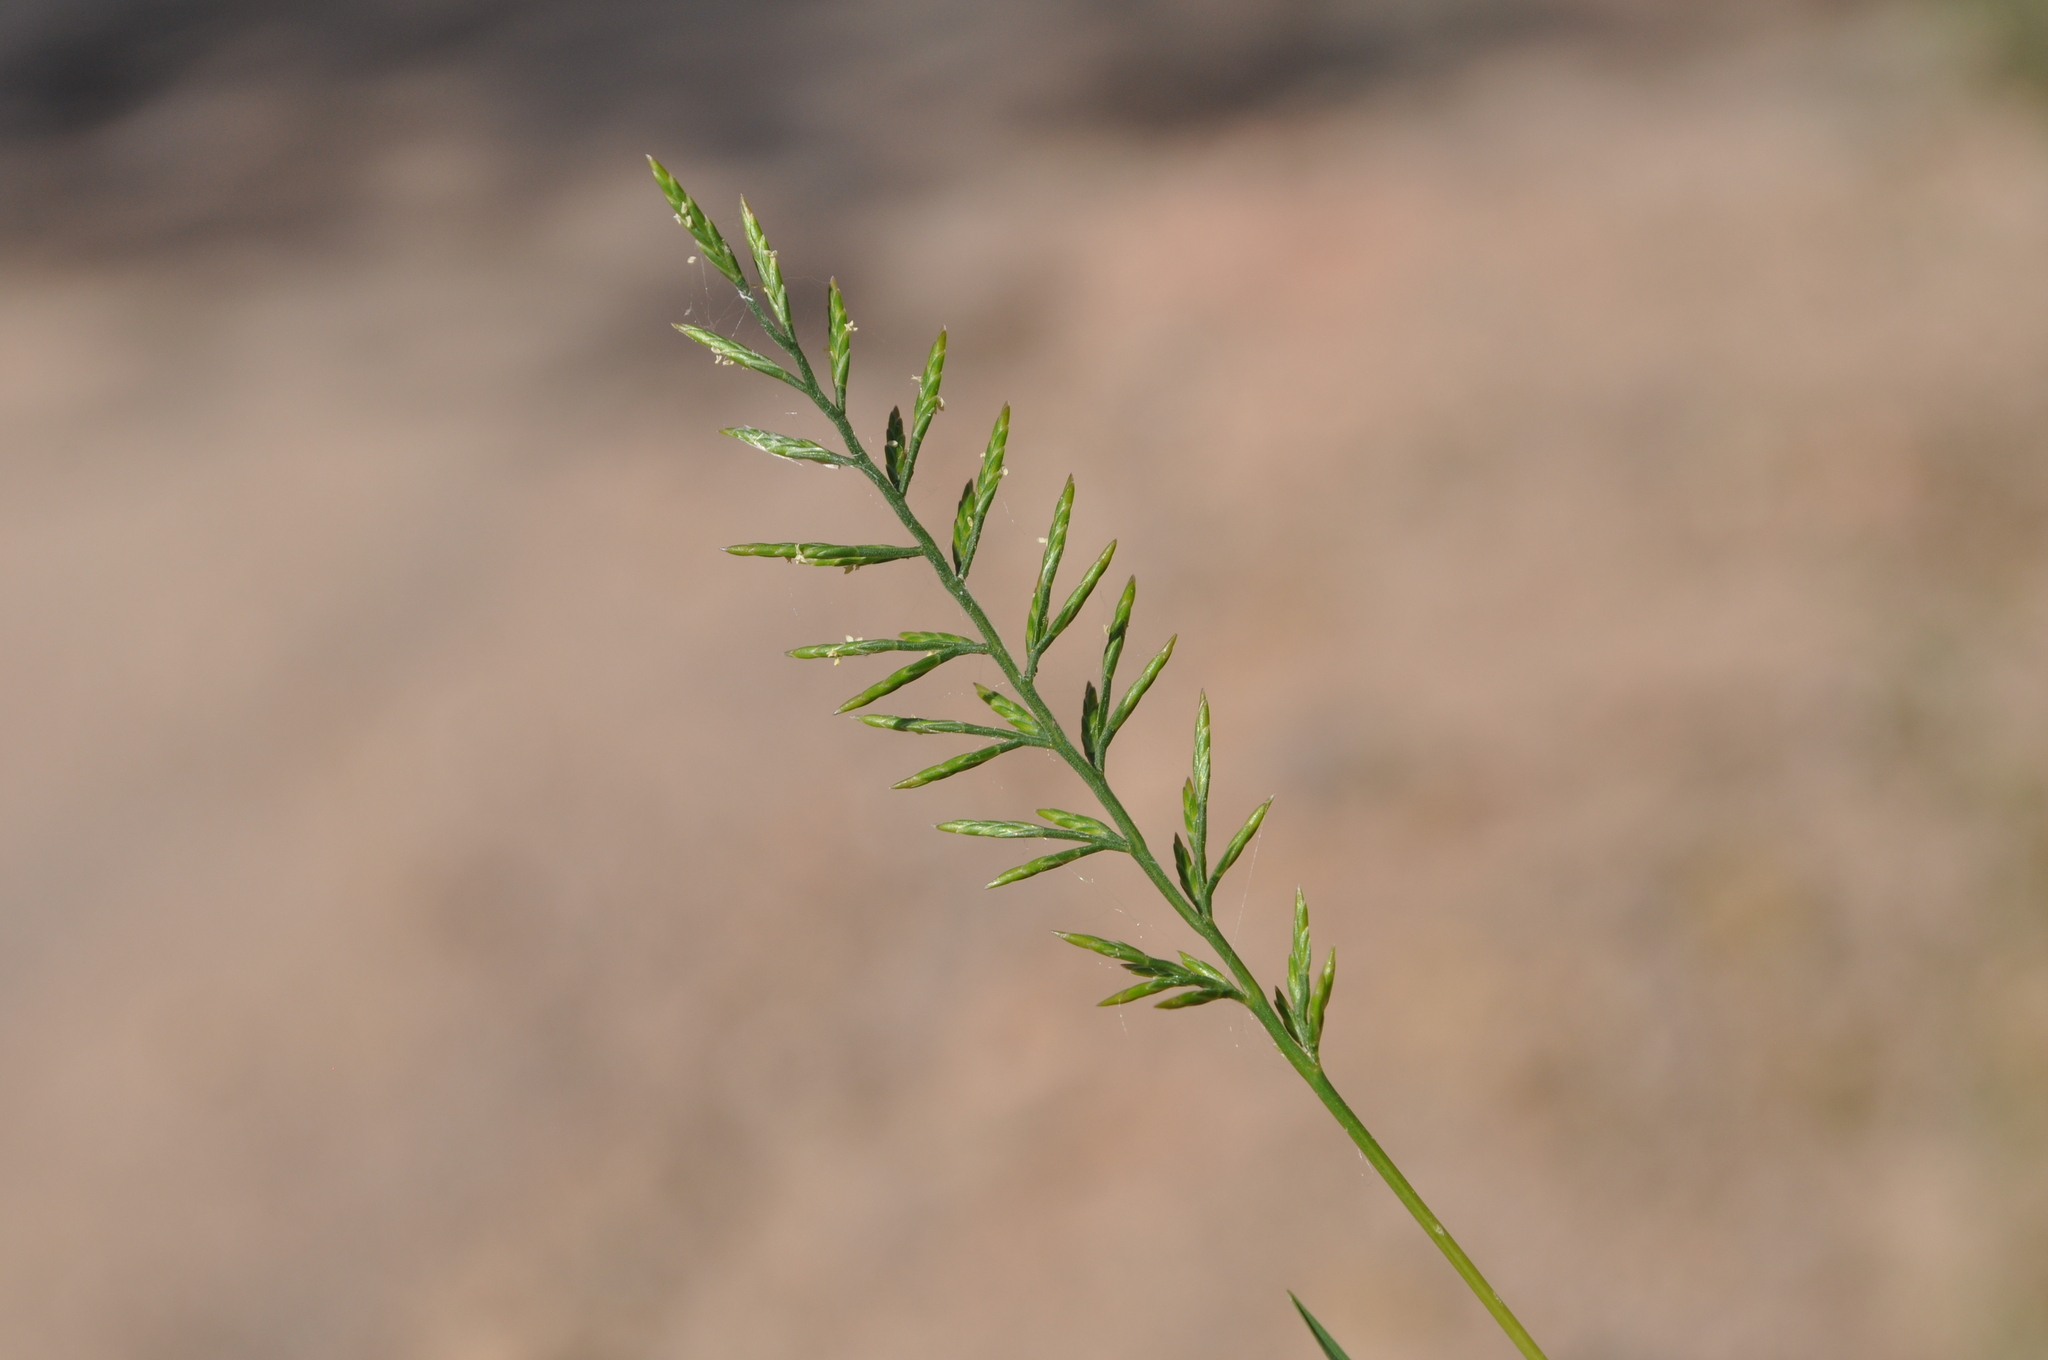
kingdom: Plantae
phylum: Tracheophyta
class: Liliopsida
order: Poales
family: Poaceae
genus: Catapodium
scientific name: Catapodium rigidum
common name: Fern-grass
